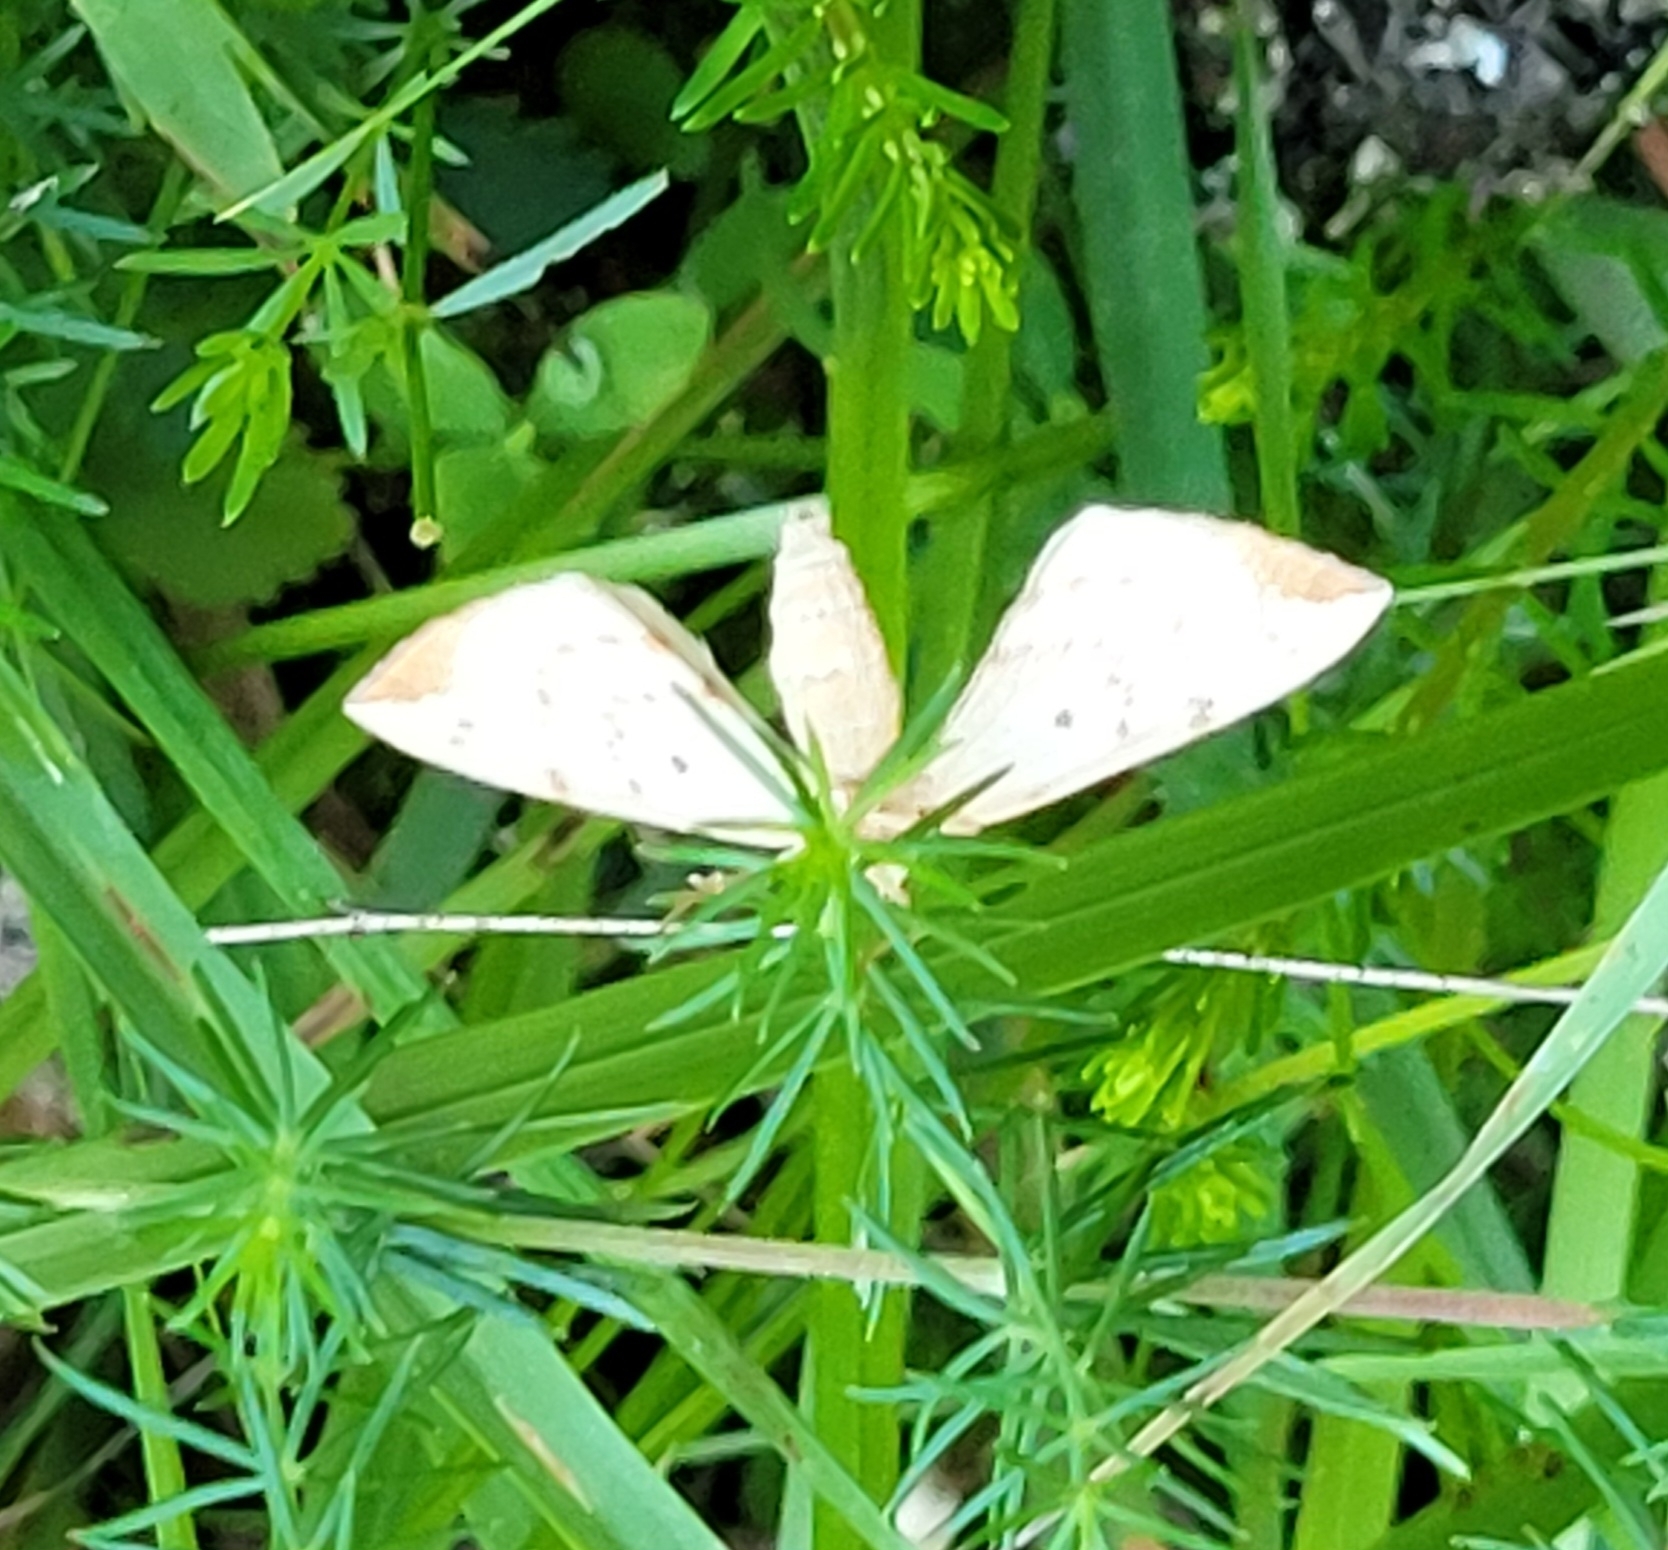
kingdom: Animalia
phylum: Arthropoda
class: Insecta
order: Lepidoptera
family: Geometridae
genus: Eulithis
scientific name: Eulithis pyraliata
